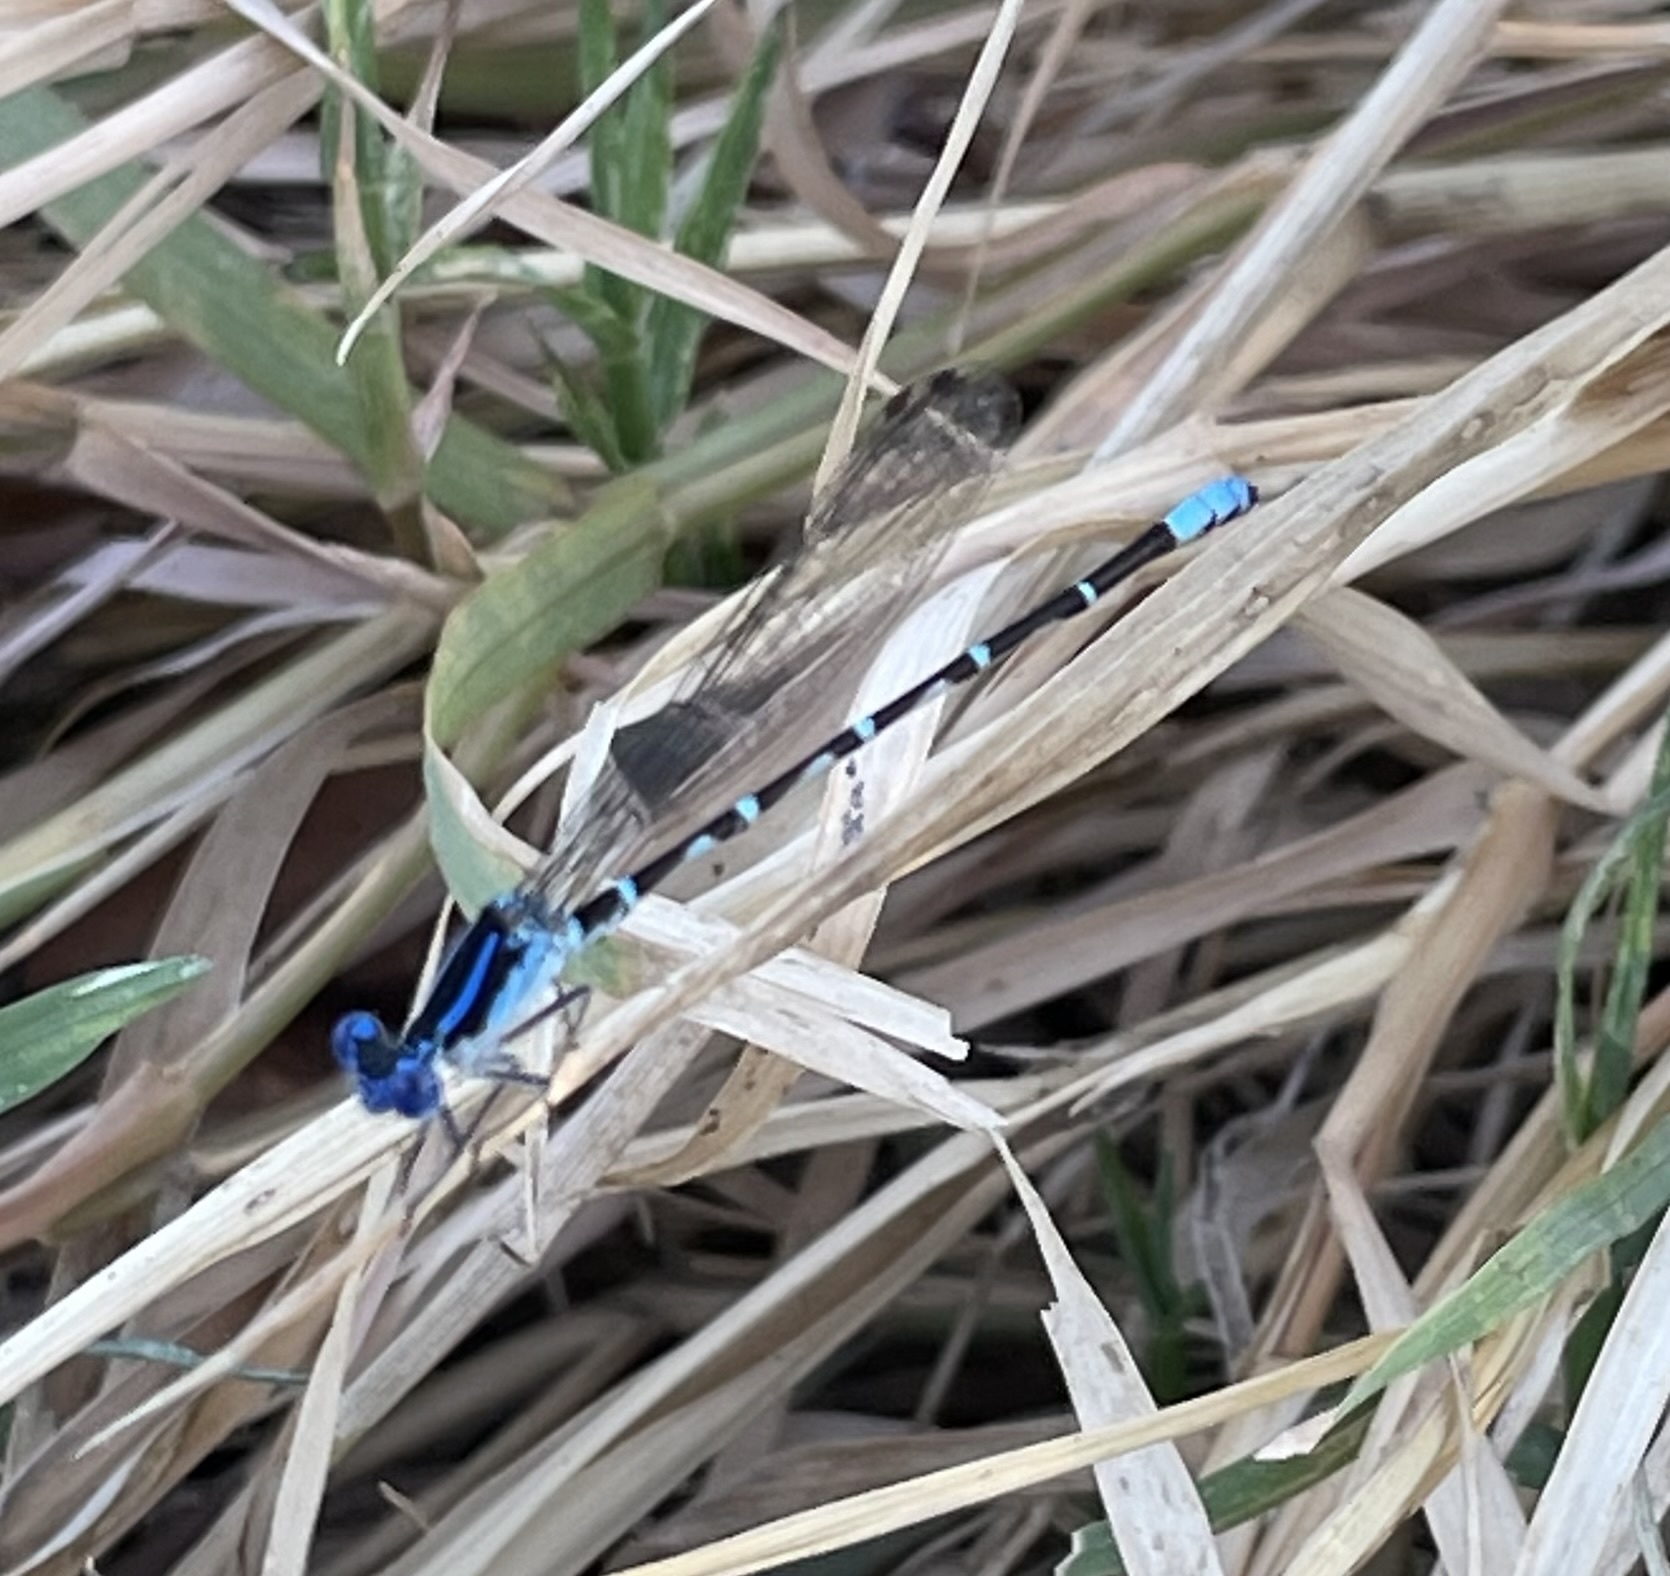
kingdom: Animalia
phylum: Arthropoda
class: Insecta
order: Odonata
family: Coenagrionidae
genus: Argia
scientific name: Argia sedula
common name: Blue-ringed dancer
